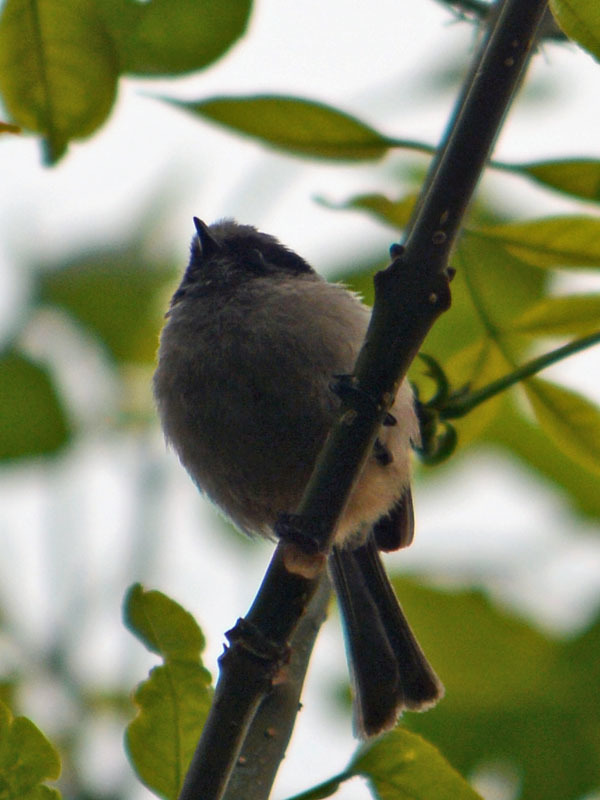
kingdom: Animalia
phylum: Chordata
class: Aves
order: Passeriformes
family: Aegithalidae
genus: Psaltriparus
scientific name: Psaltriparus minimus
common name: American bushtit
